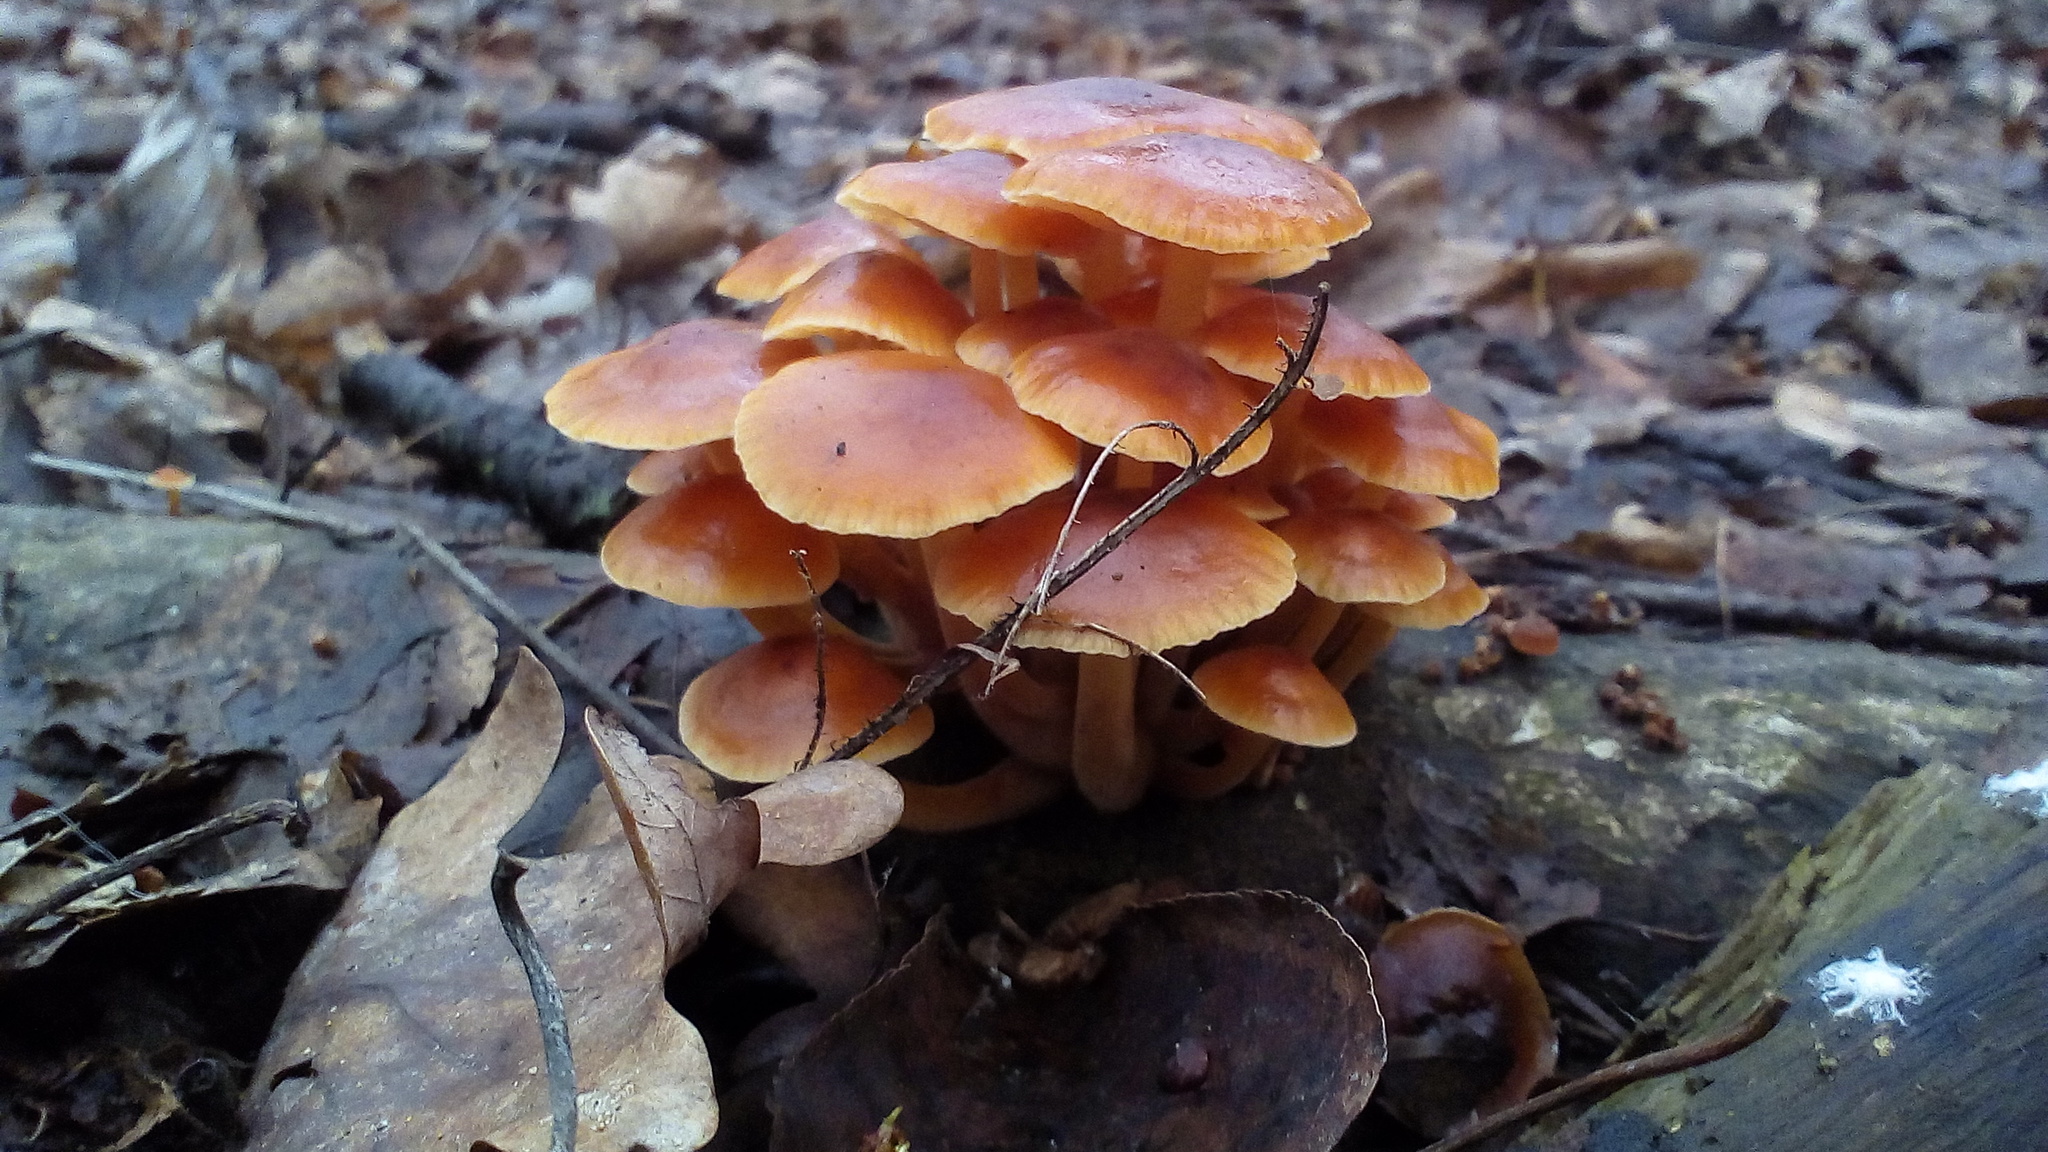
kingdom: Fungi
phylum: Basidiomycota
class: Agaricomycetes
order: Agaricales
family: Physalacriaceae
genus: Flammulina
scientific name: Flammulina
